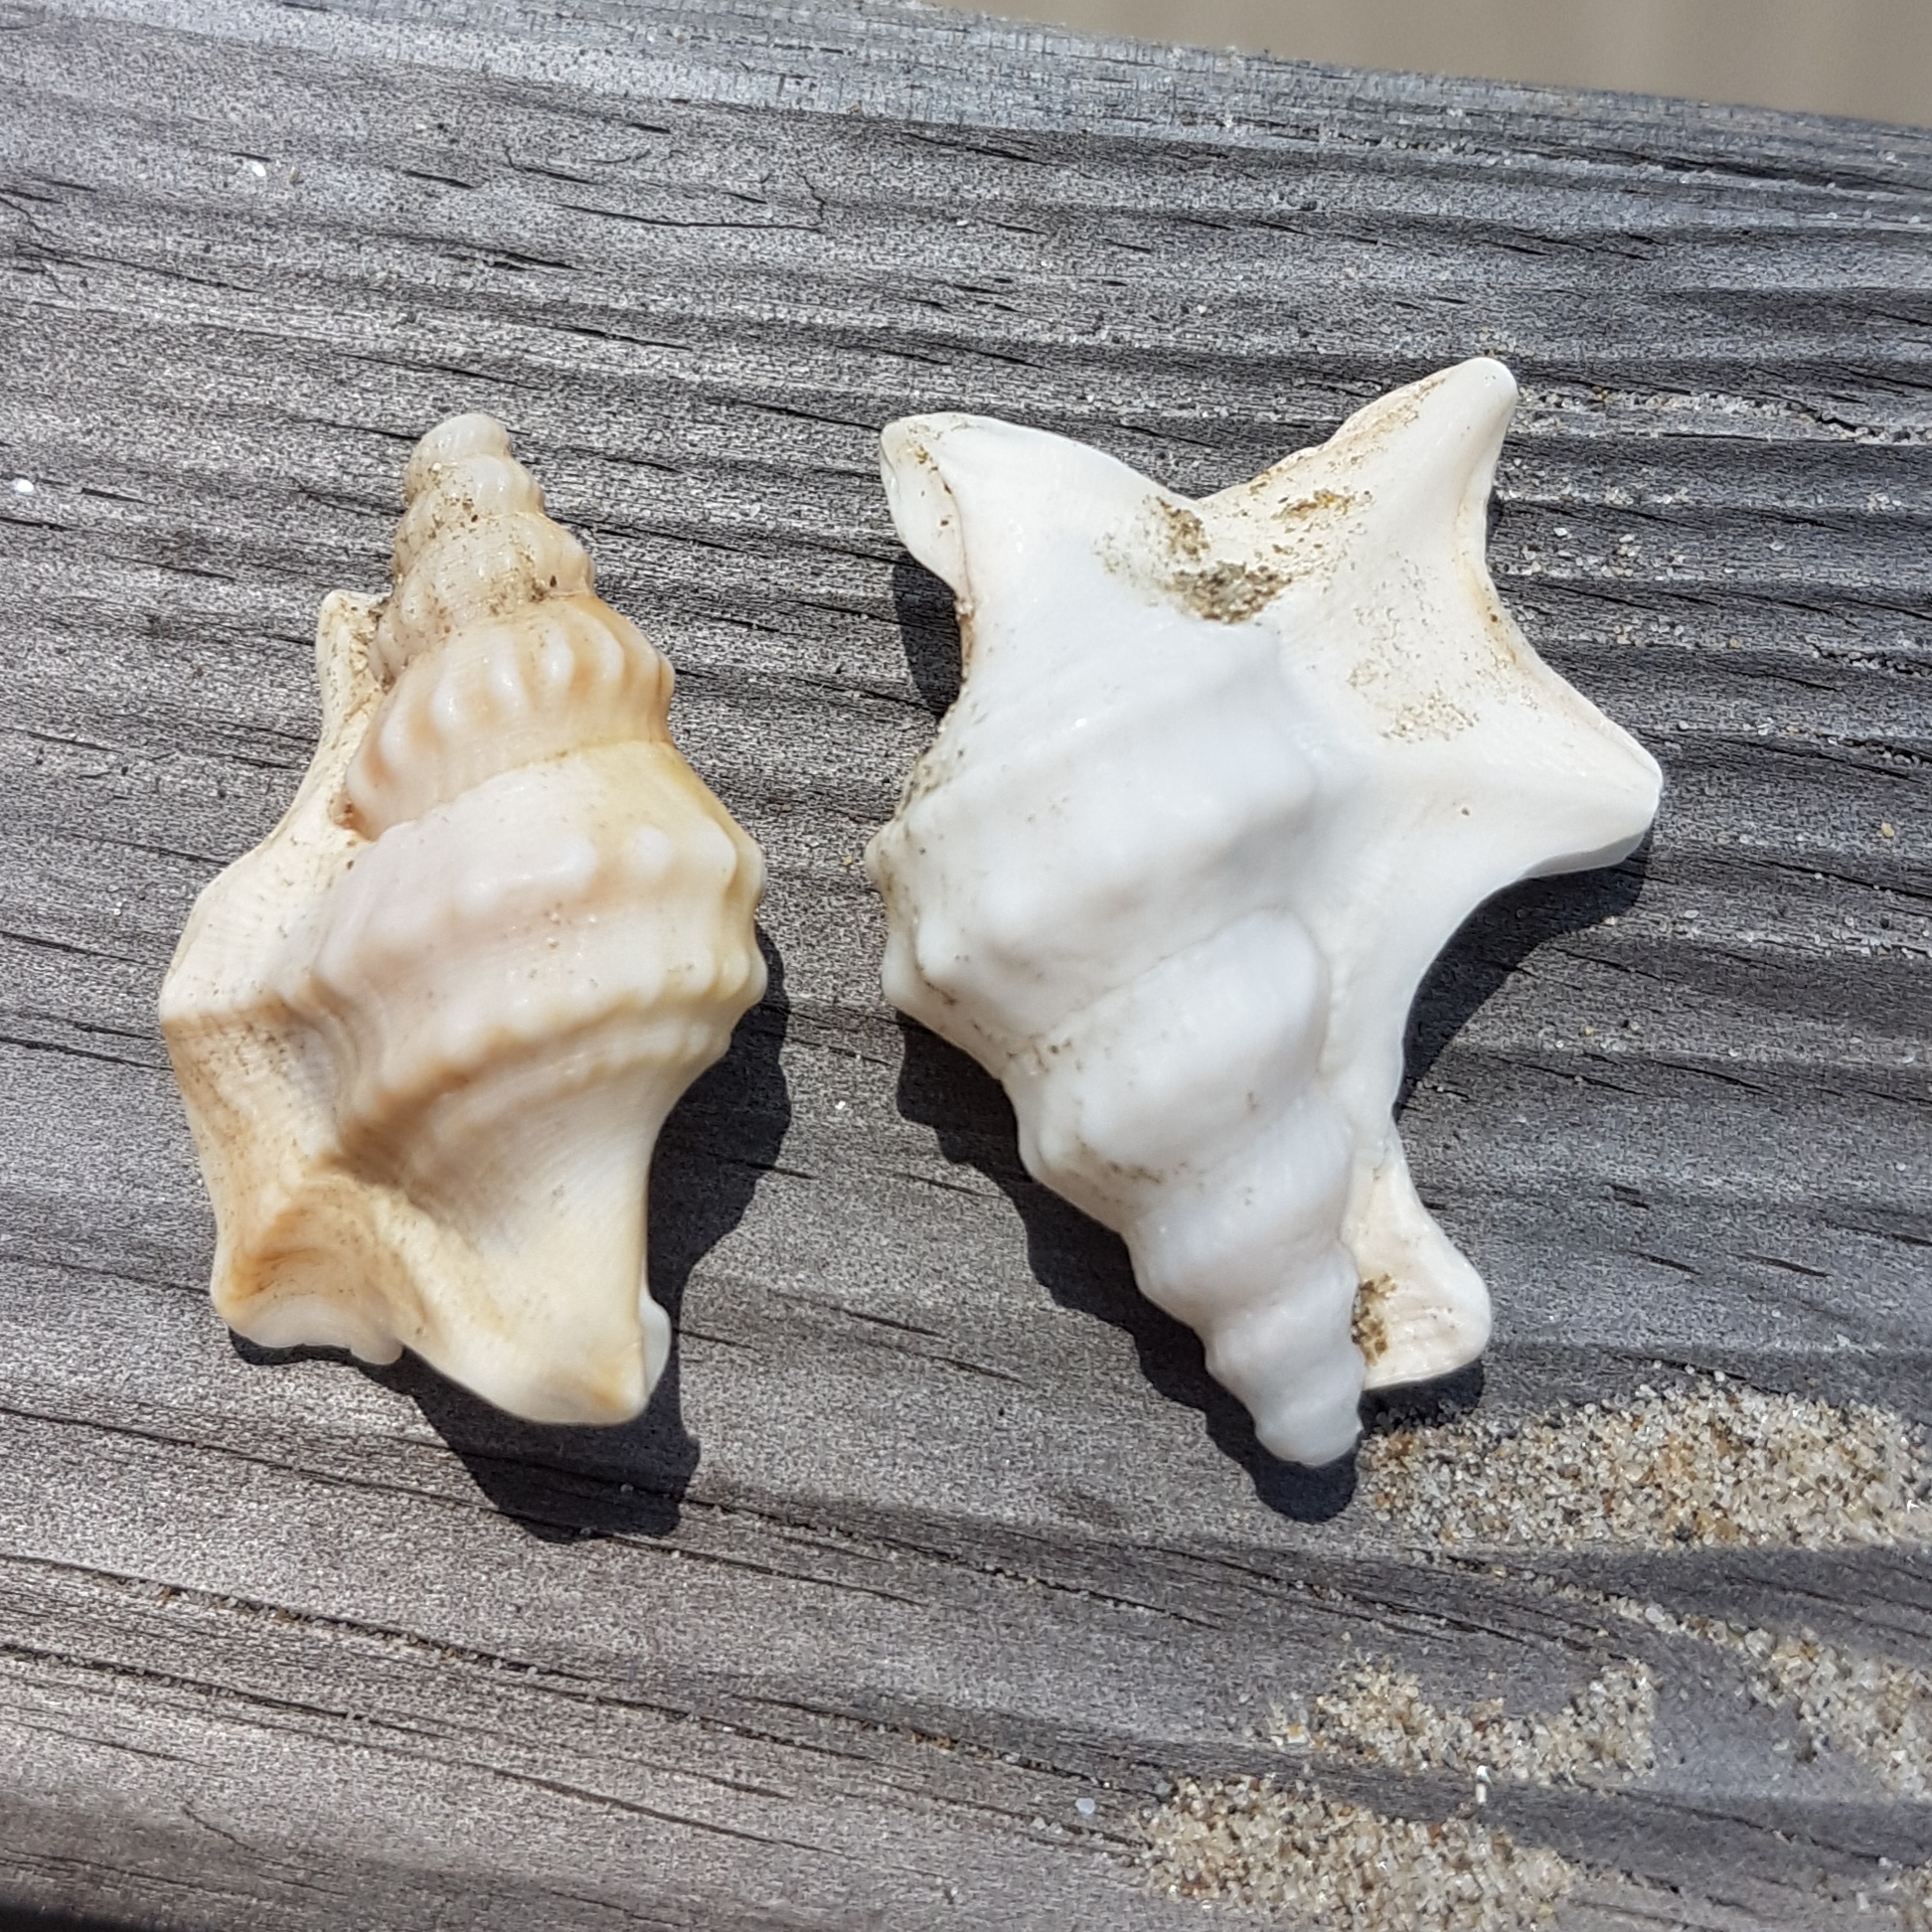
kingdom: Animalia
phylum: Mollusca
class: Gastropoda
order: Littorinimorpha
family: Aporrhaidae
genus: Aporrhais
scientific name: Aporrhais pespelecani
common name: Common pelican’s foot
